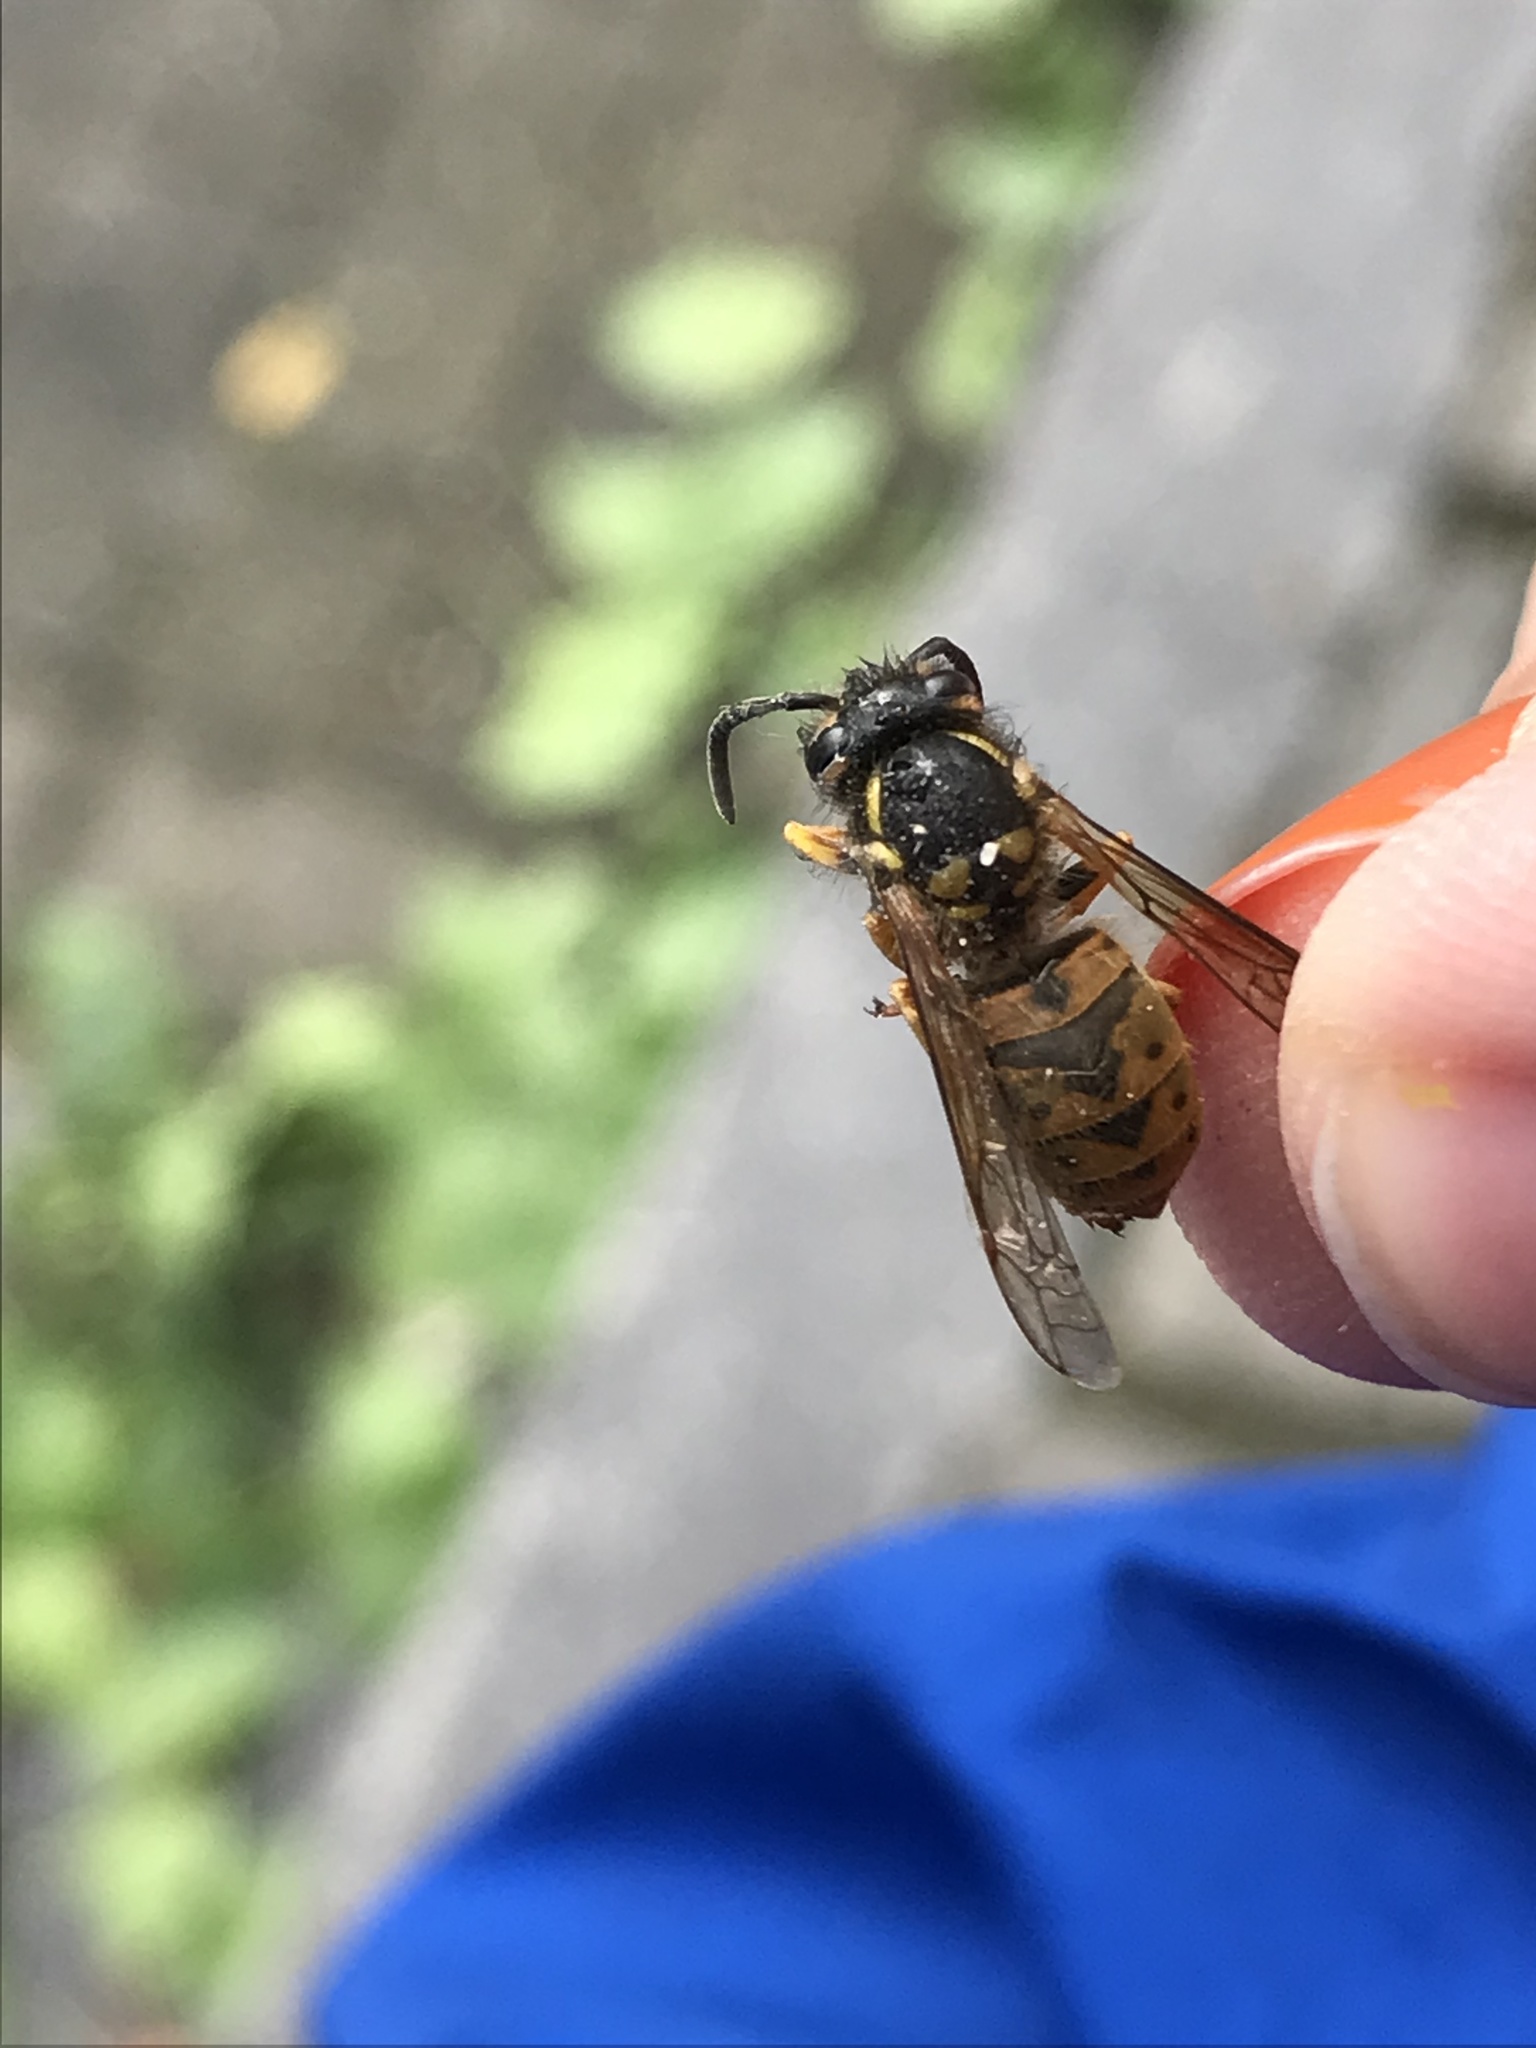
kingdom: Animalia
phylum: Arthropoda
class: Insecta
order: Hymenoptera
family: Vespidae
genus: Vespula
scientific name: Vespula germanica
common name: German wasp
